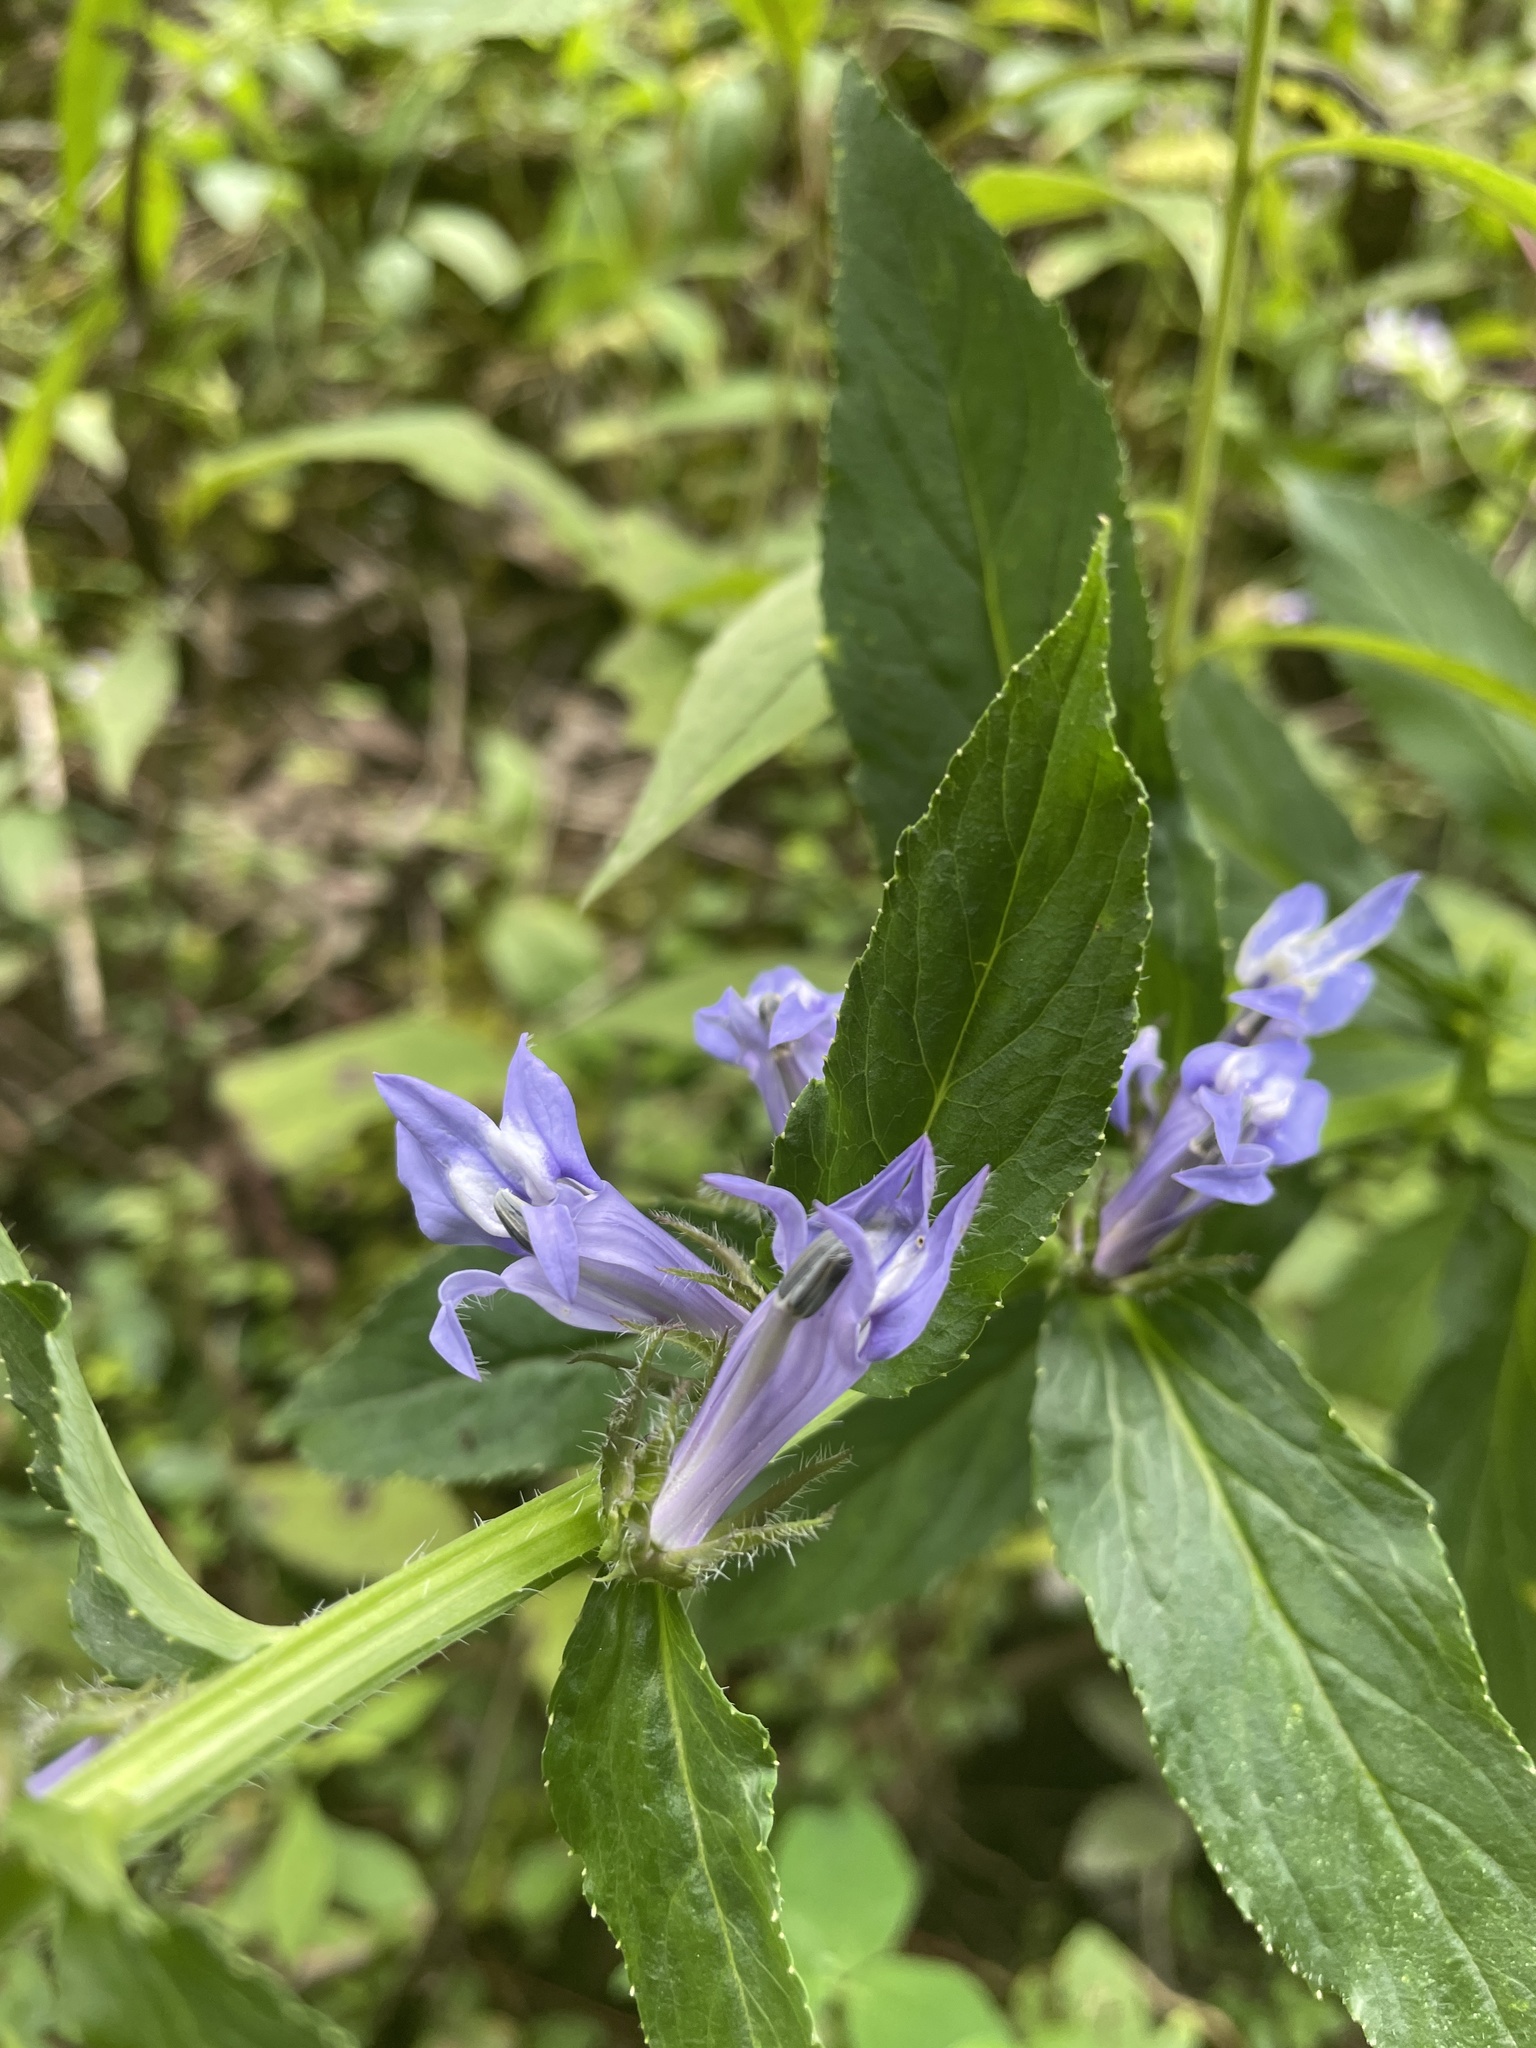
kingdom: Plantae
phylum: Tracheophyta
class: Magnoliopsida
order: Asterales
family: Campanulaceae
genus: Lobelia
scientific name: Lobelia siphilitica
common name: Great lobelia
